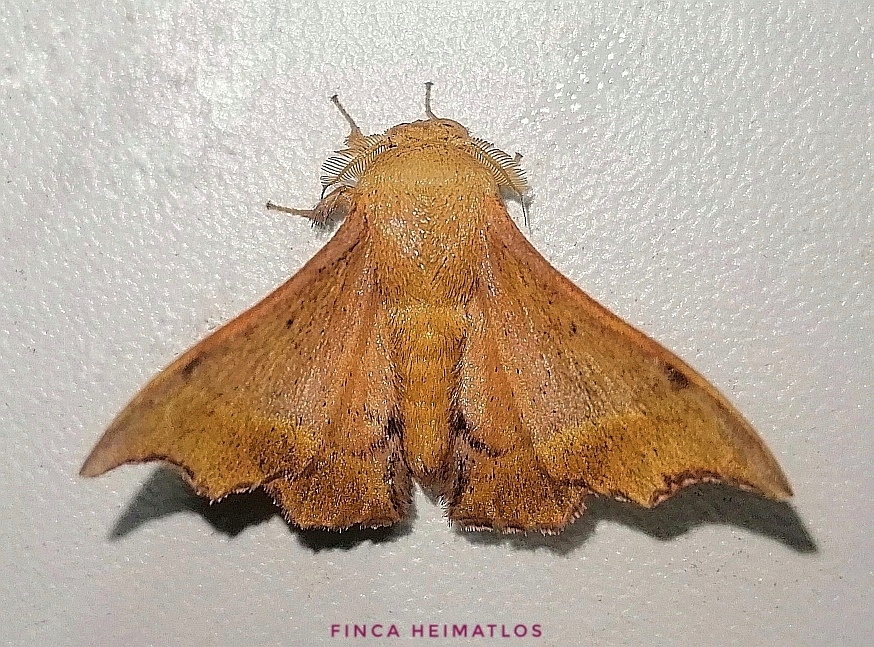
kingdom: Animalia
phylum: Arthropoda
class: Insecta
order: Lepidoptera
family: Mimallonidae
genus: Lacosoma
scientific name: Lacosoma oyapoca
